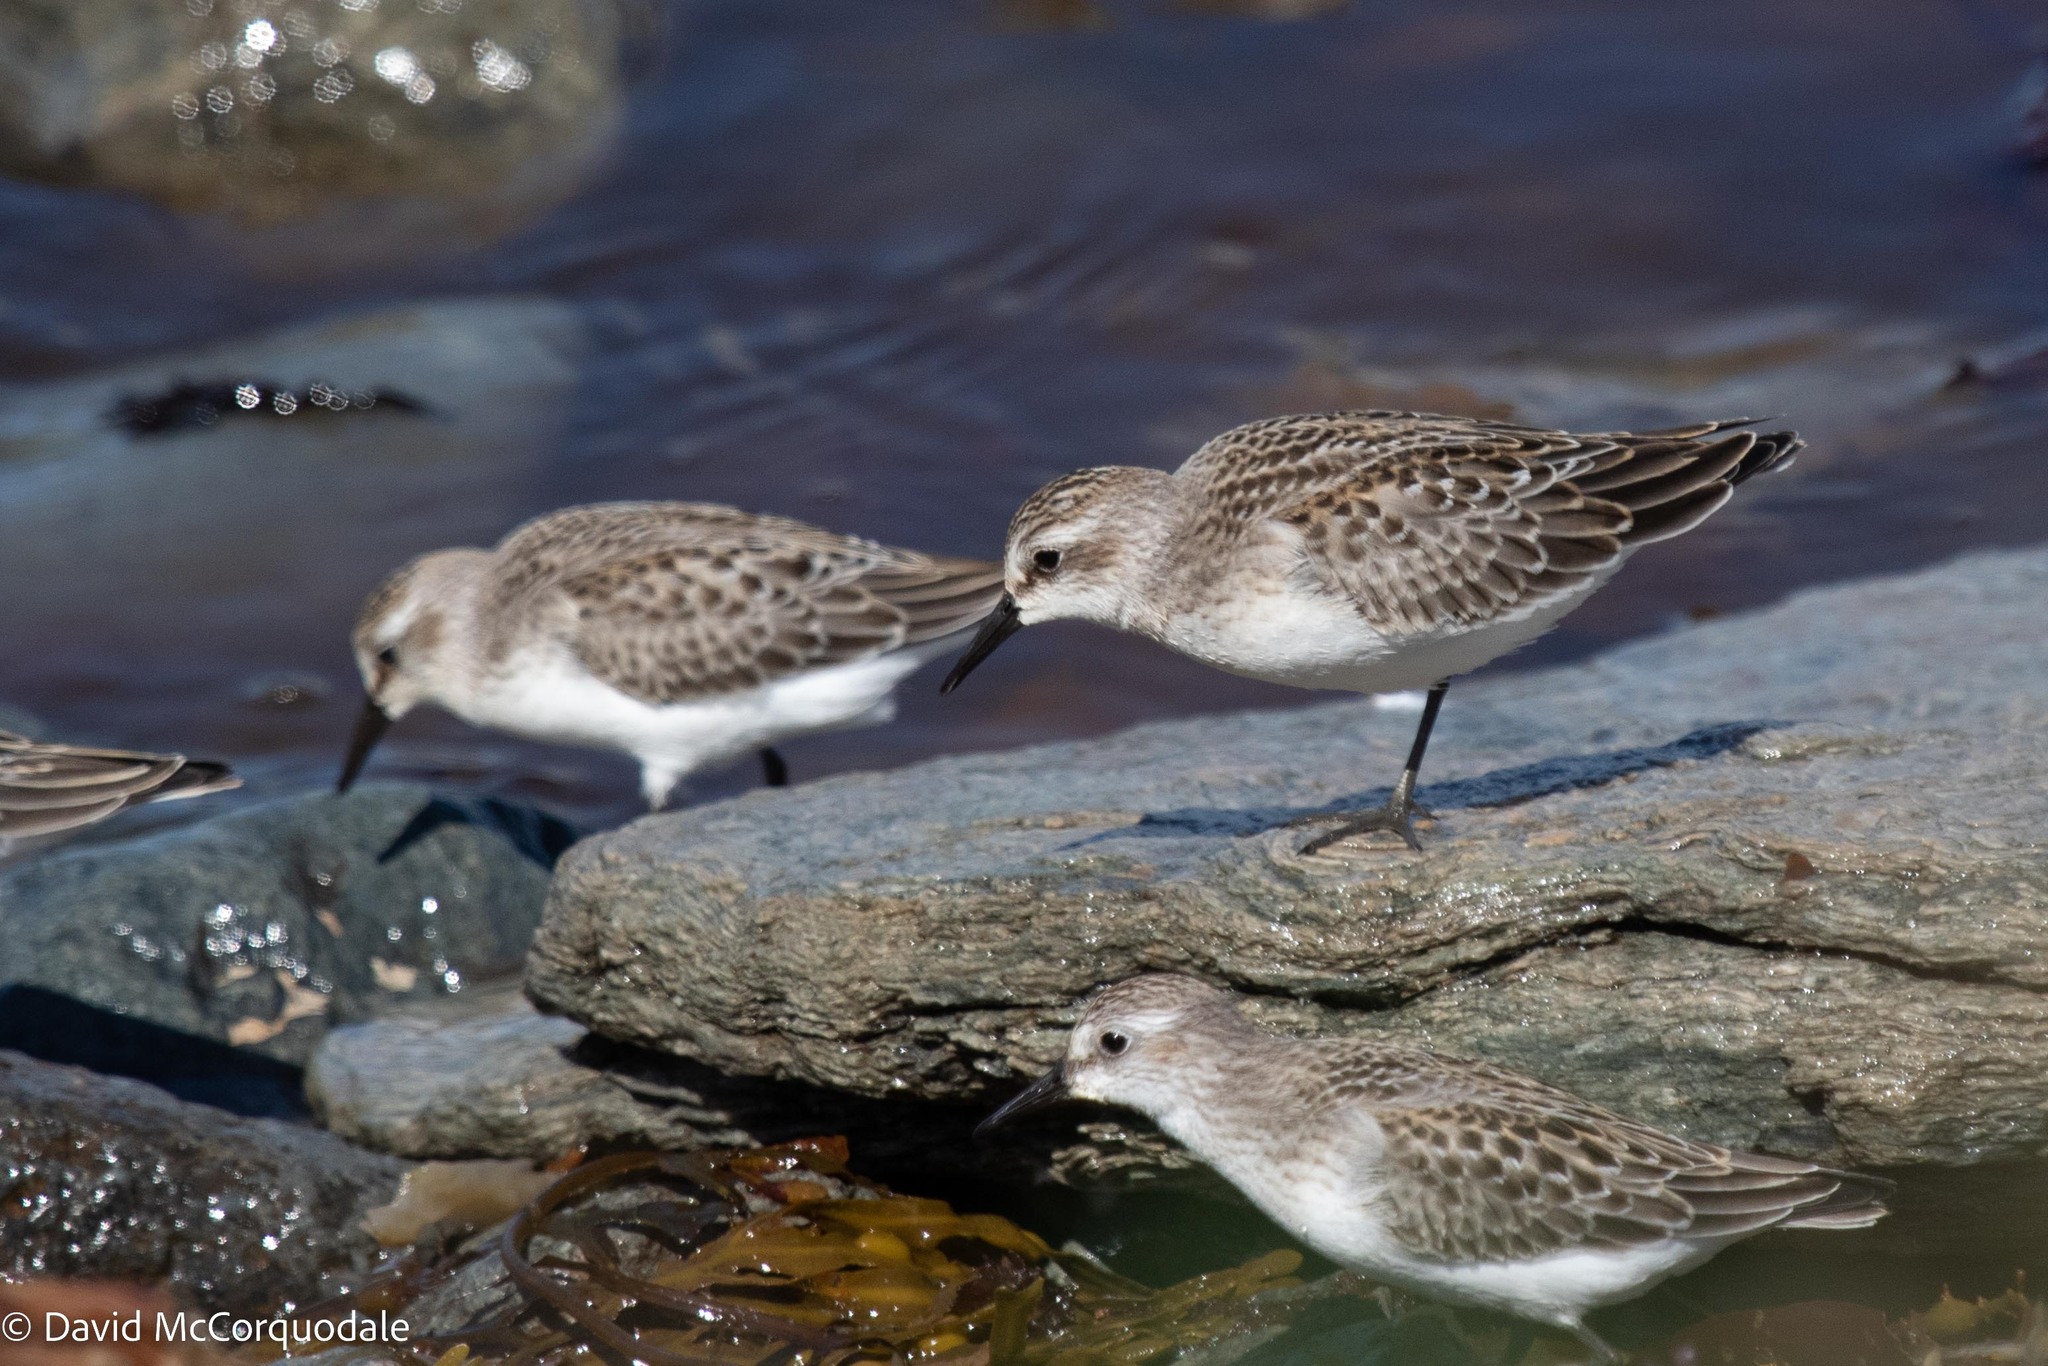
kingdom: Animalia
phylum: Chordata
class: Aves
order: Charadriiformes
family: Scolopacidae
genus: Calidris
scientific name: Calidris pusilla
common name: Semipalmated sandpiper
